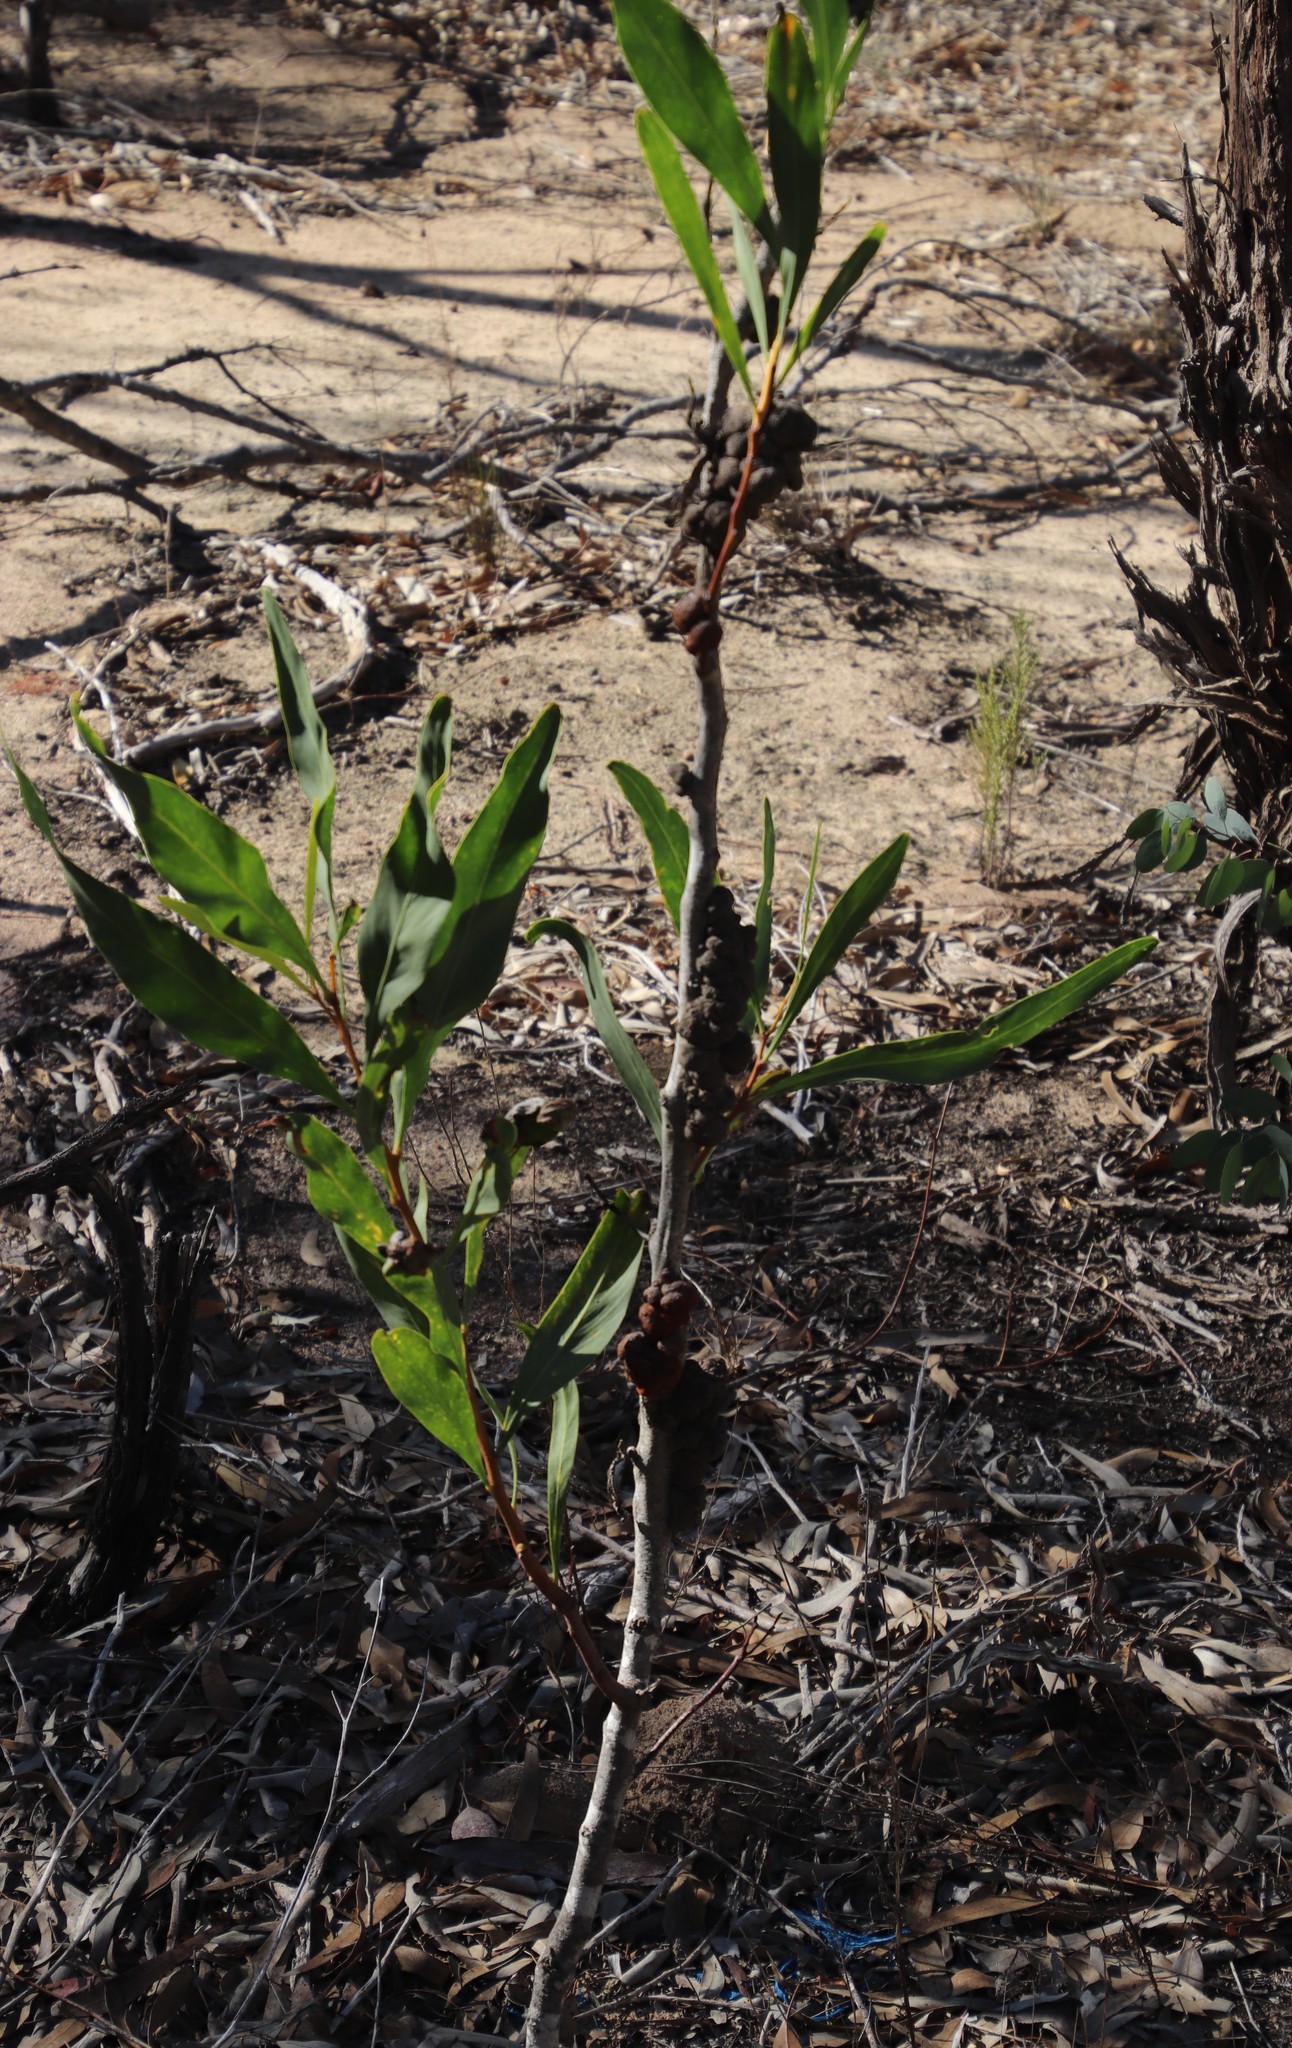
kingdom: Plantae
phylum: Tracheophyta
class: Magnoliopsida
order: Fabales
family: Fabaceae
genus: Acacia
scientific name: Acacia saligna
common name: Orange wattle
